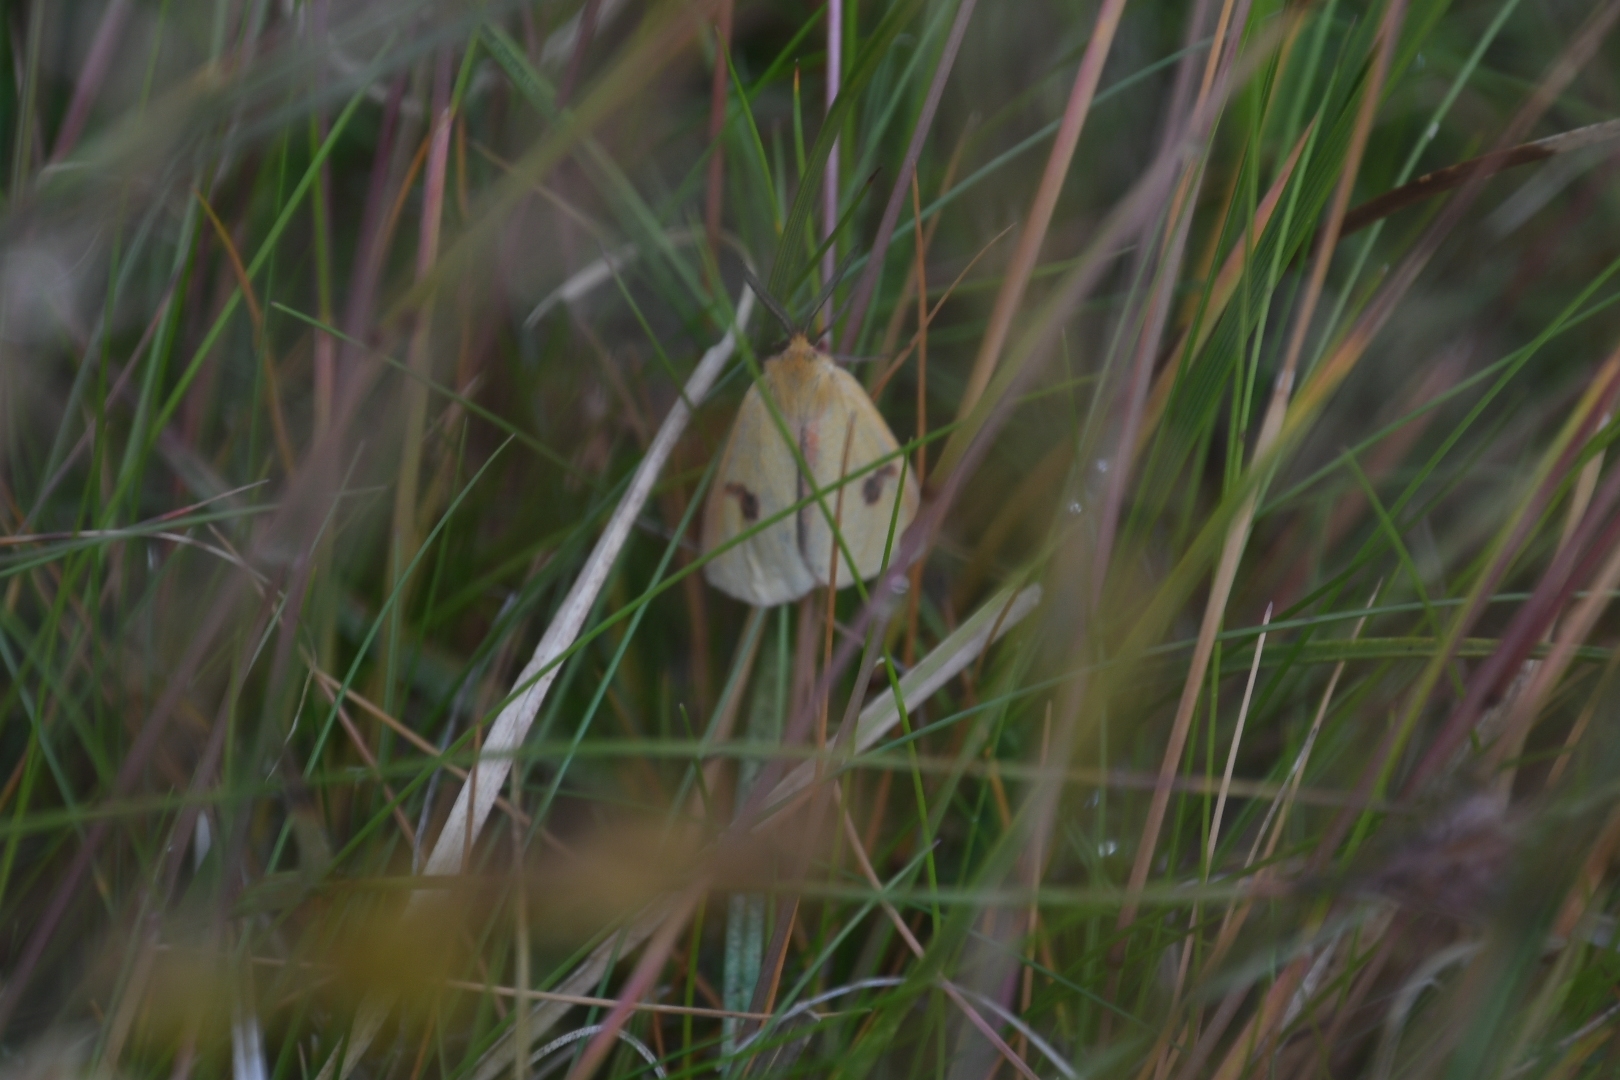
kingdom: Animalia
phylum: Arthropoda
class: Insecta
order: Lepidoptera
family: Erebidae
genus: Diacrisia
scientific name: Diacrisia sannio
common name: Clouded buff
